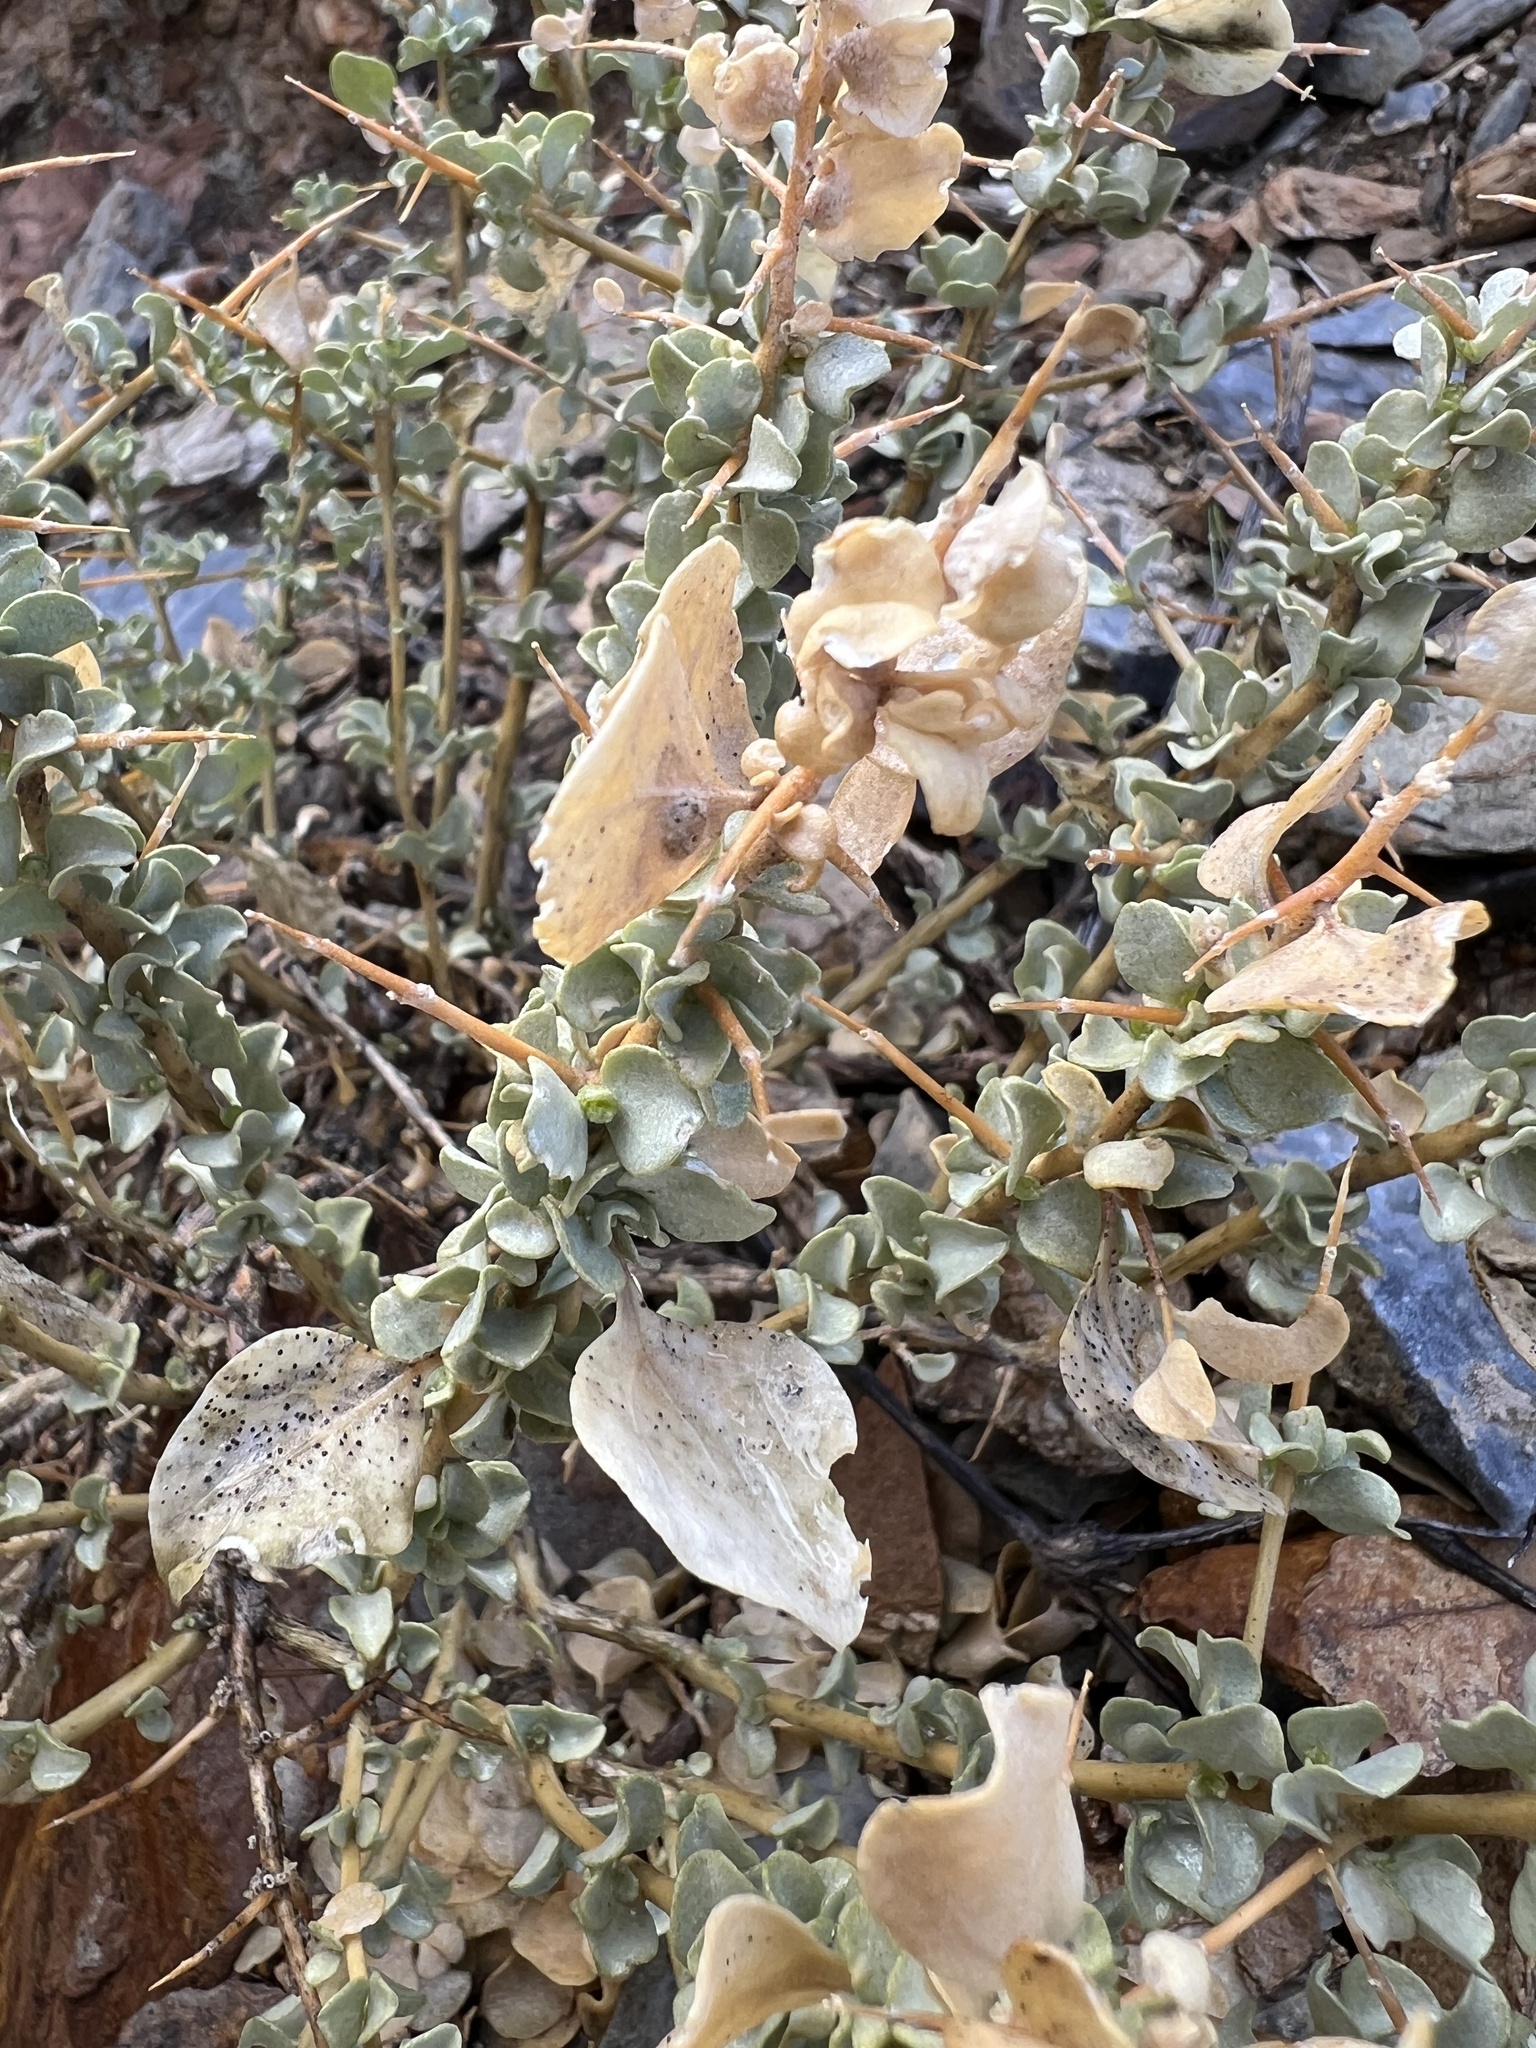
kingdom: Plantae
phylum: Tracheophyta
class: Magnoliopsida
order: Caryophyllales
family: Amaranthaceae
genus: Atriplex
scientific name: Atriplex confertifolia
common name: Shadscale
